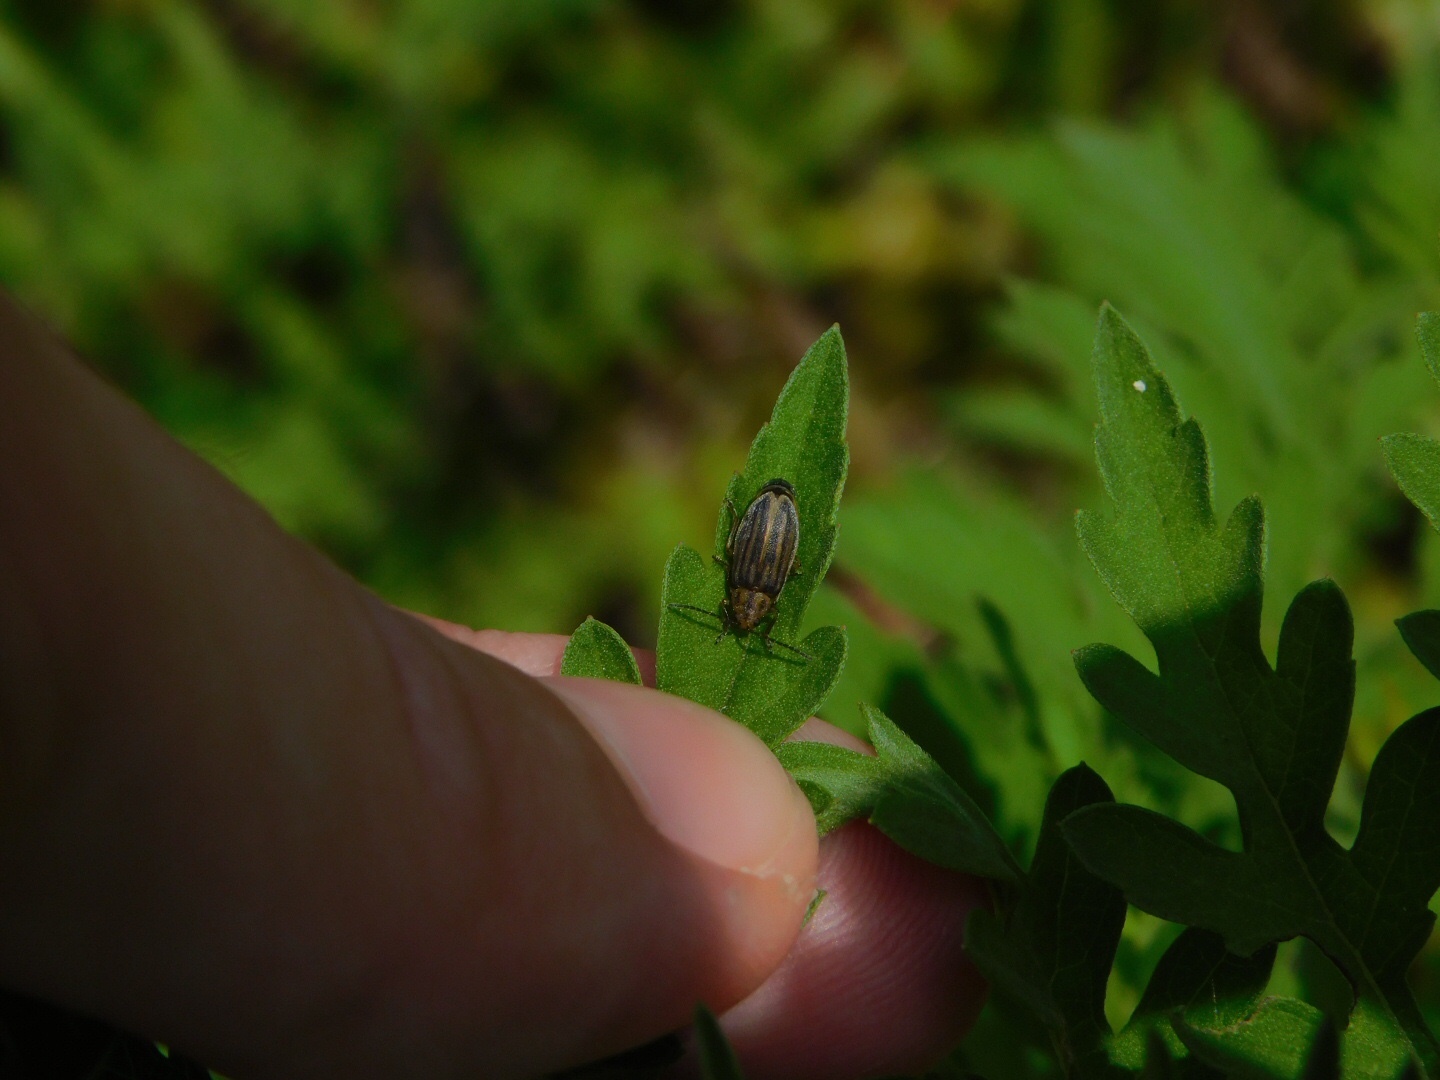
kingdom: Animalia
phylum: Arthropoda
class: Insecta
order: Coleoptera
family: Chrysomelidae
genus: Ophraella
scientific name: Ophraella slobodkini
